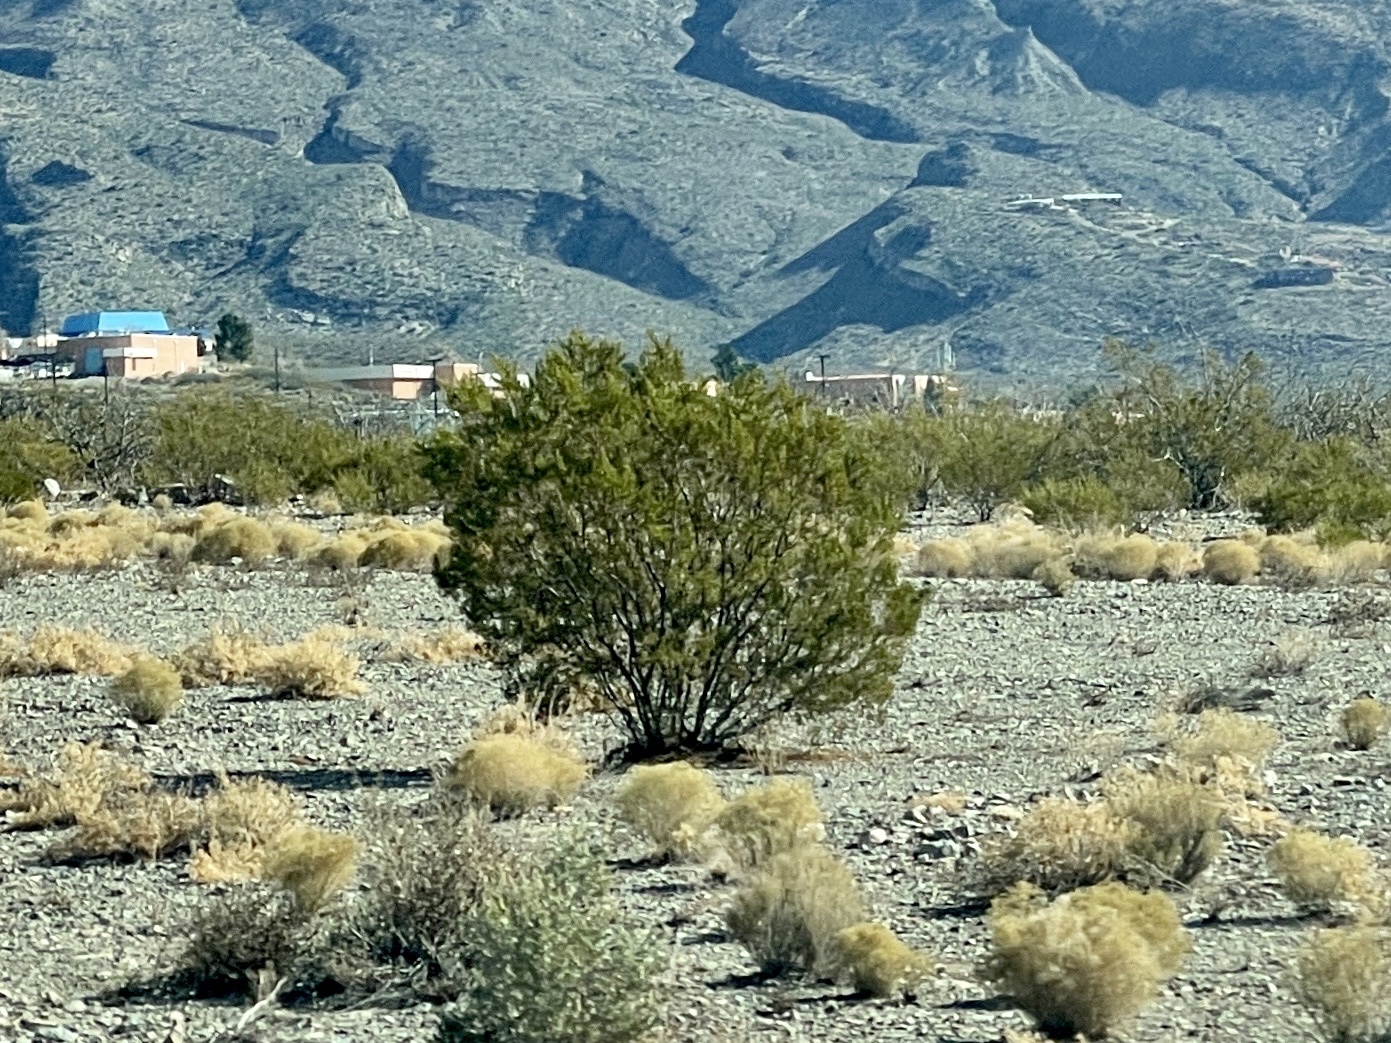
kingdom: Plantae
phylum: Tracheophyta
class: Magnoliopsida
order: Zygophyllales
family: Zygophyllaceae
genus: Larrea
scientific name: Larrea tridentata
